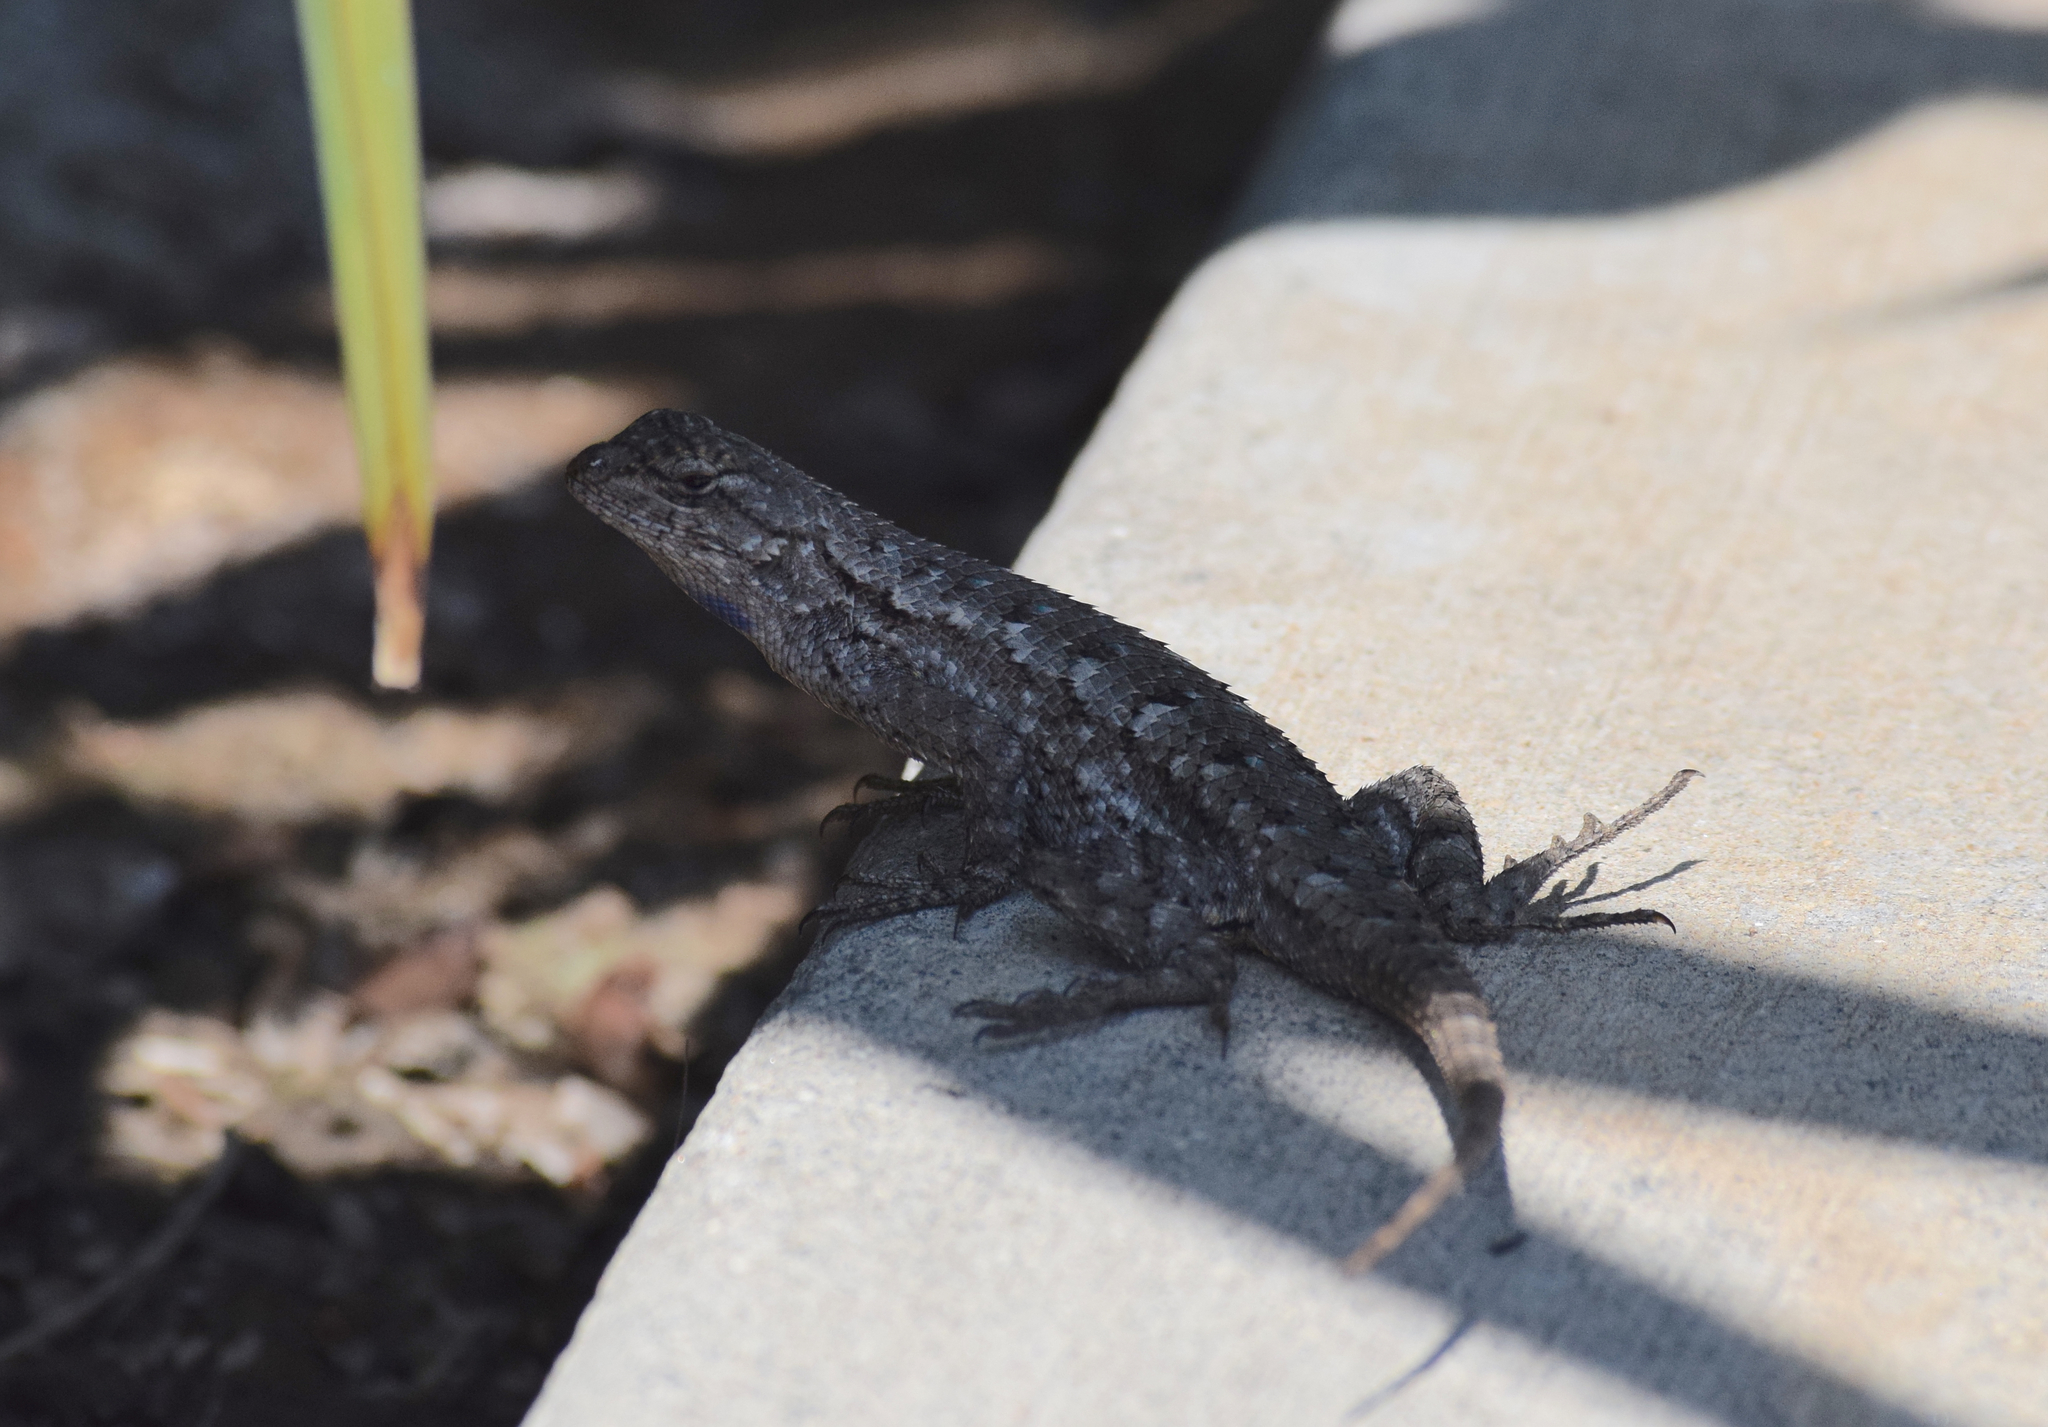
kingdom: Animalia
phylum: Chordata
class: Squamata
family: Phrynosomatidae
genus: Sceloporus
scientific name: Sceloporus occidentalis
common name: Western fence lizard
